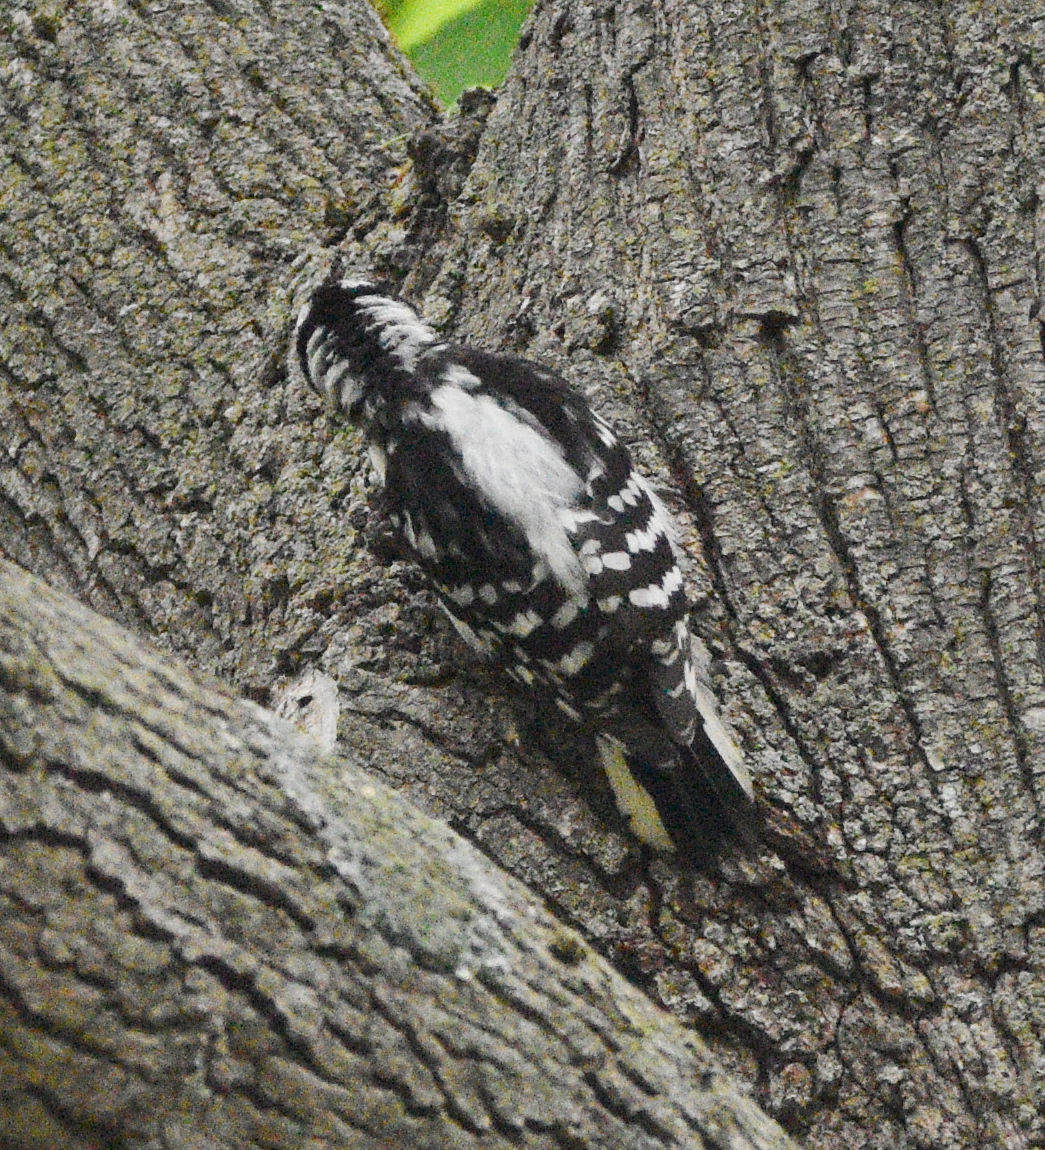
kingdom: Animalia
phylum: Chordata
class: Aves
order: Piciformes
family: Picidae
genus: Leuconotopicus
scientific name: Leuconotopicus villosus
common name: Hairy woodpecker
